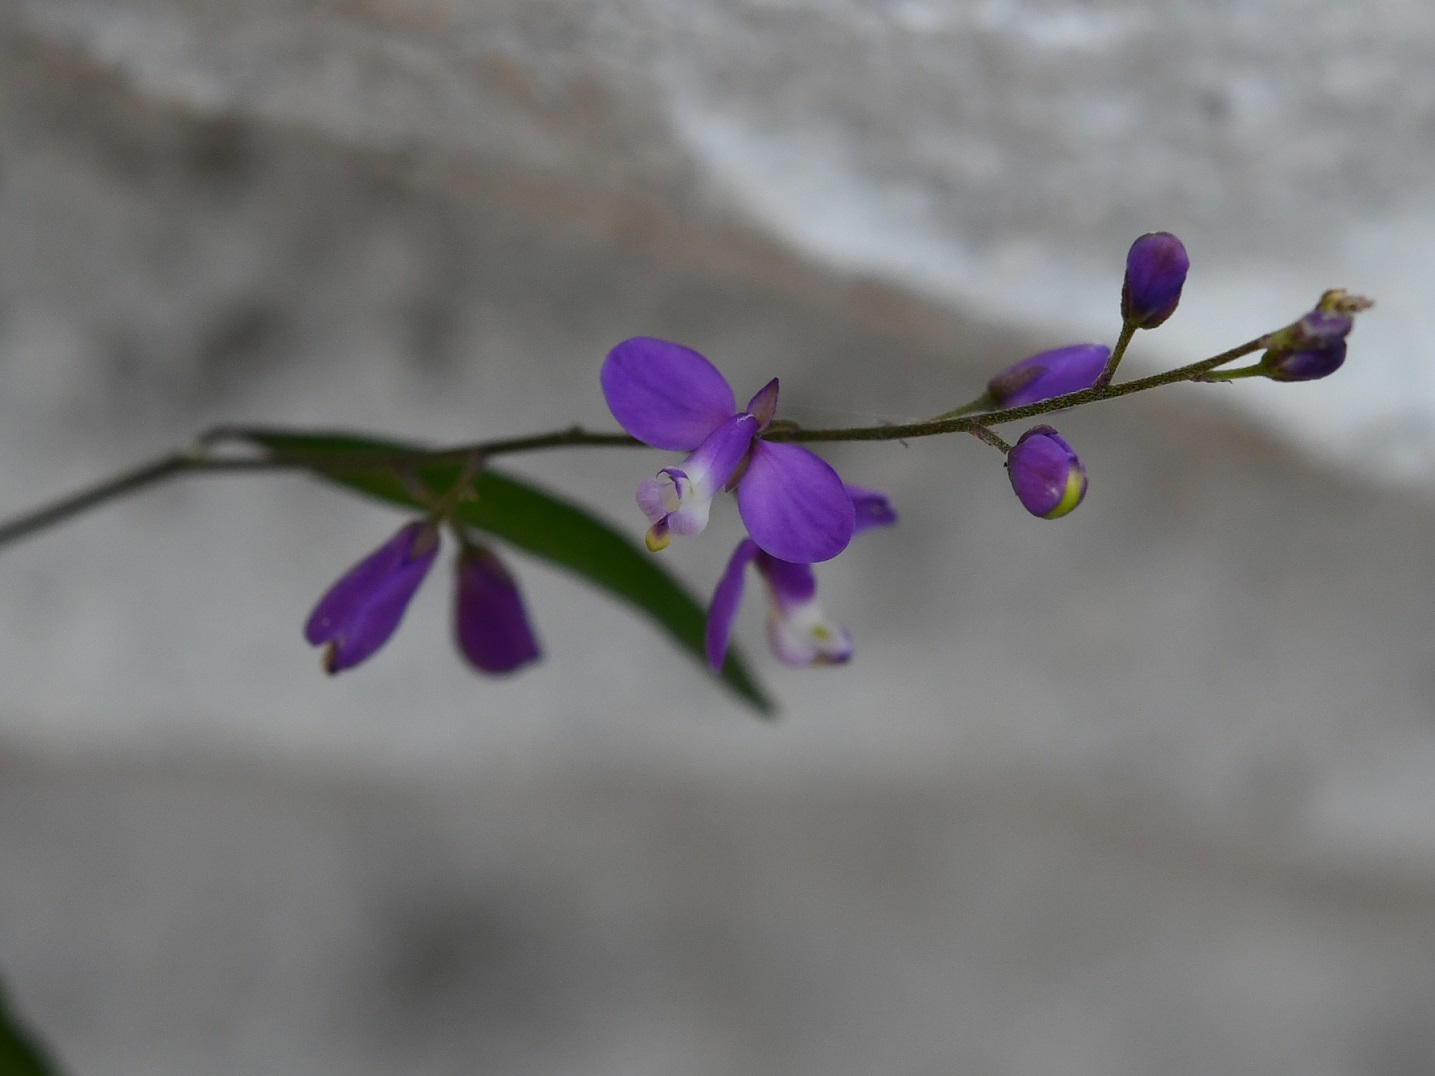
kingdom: Plantae
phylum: Tracheophyta
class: Magnoliopsida
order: Fabales
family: Polygalaceae
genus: Hebecarpa
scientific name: Hebecarpa obscura
